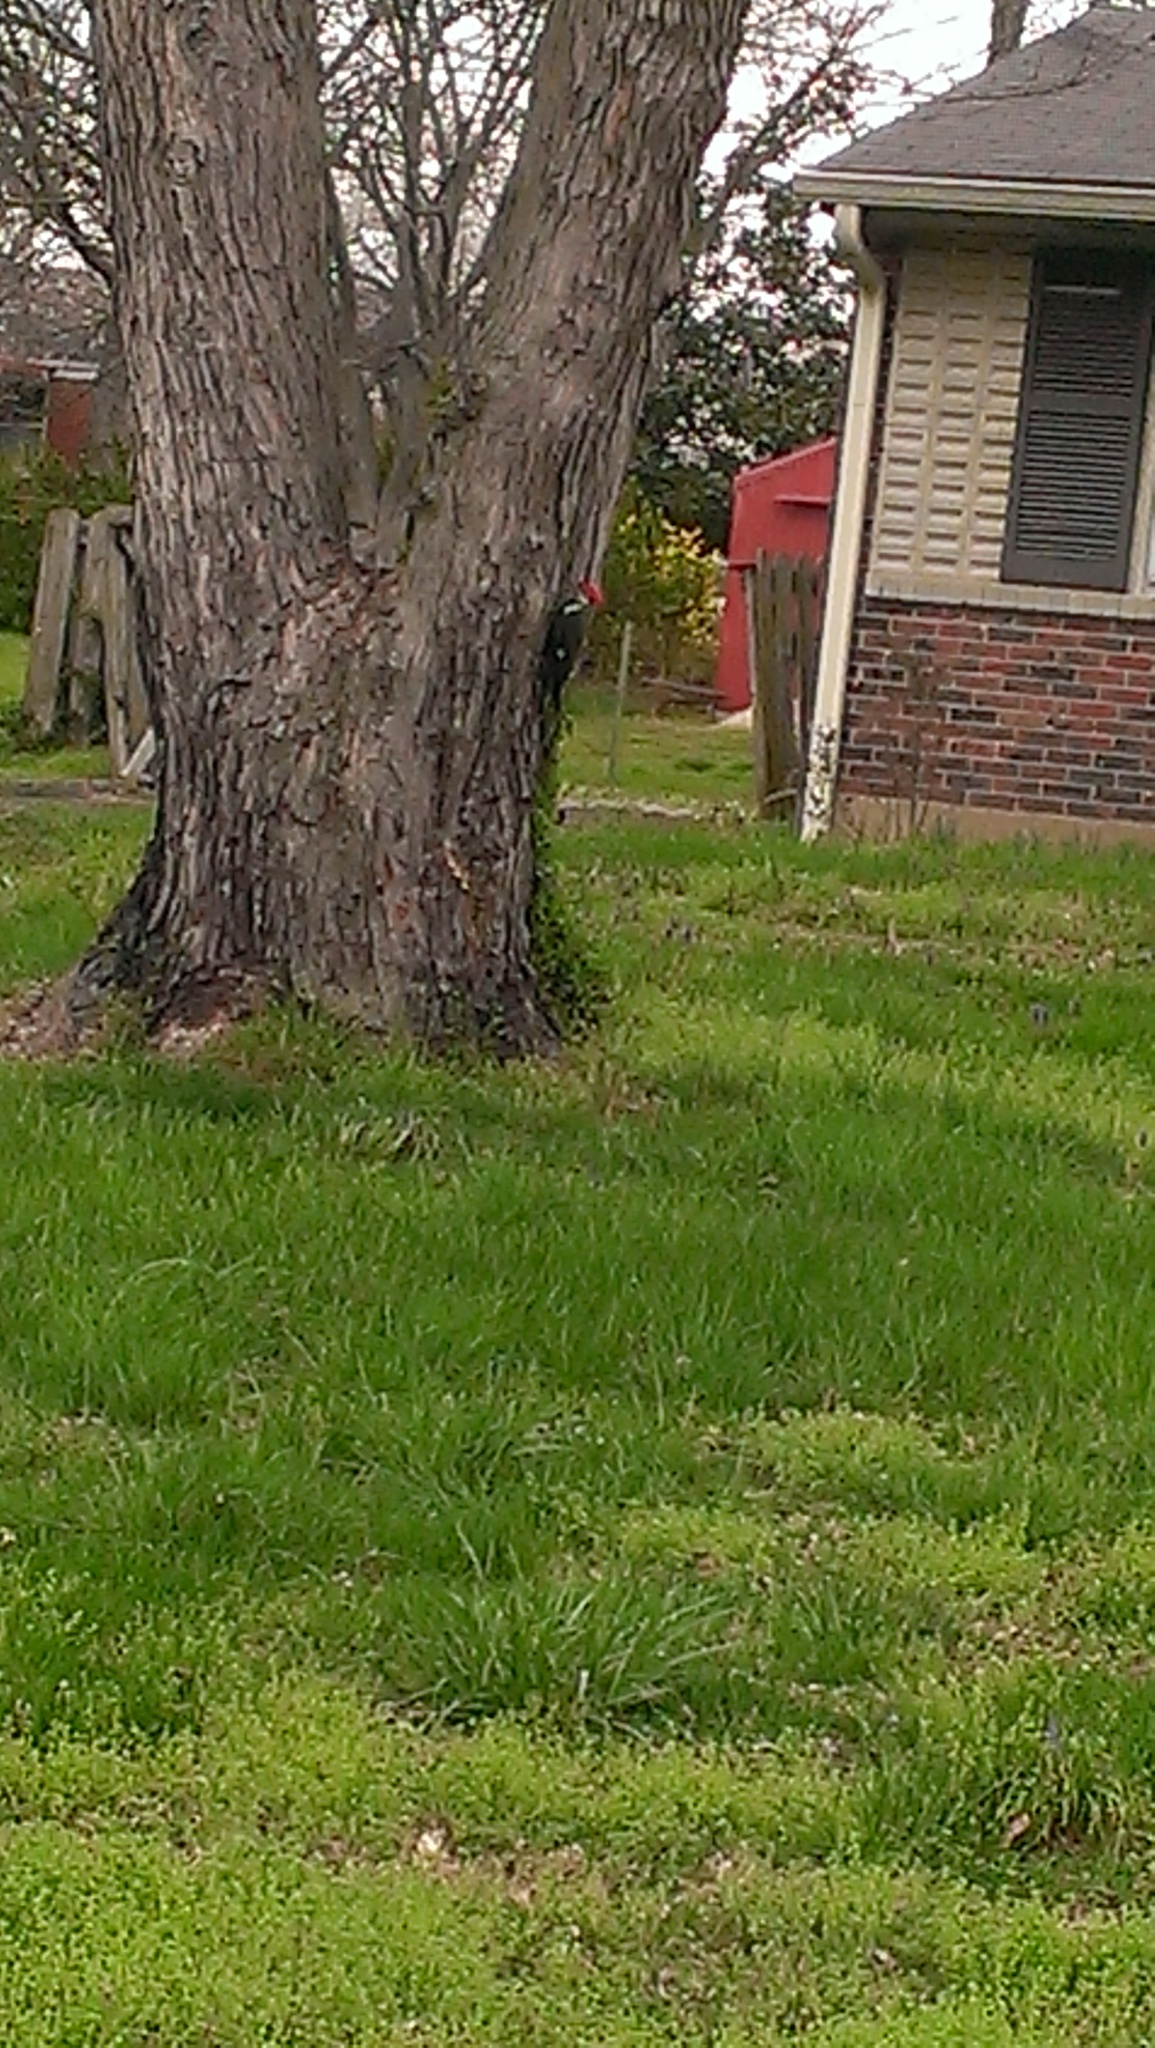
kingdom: Animalia
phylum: Chordata
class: Aves
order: Piciformes
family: Picidae
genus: Dryocopus
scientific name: Dryocopus pileatus
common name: Pileated woodpecker
